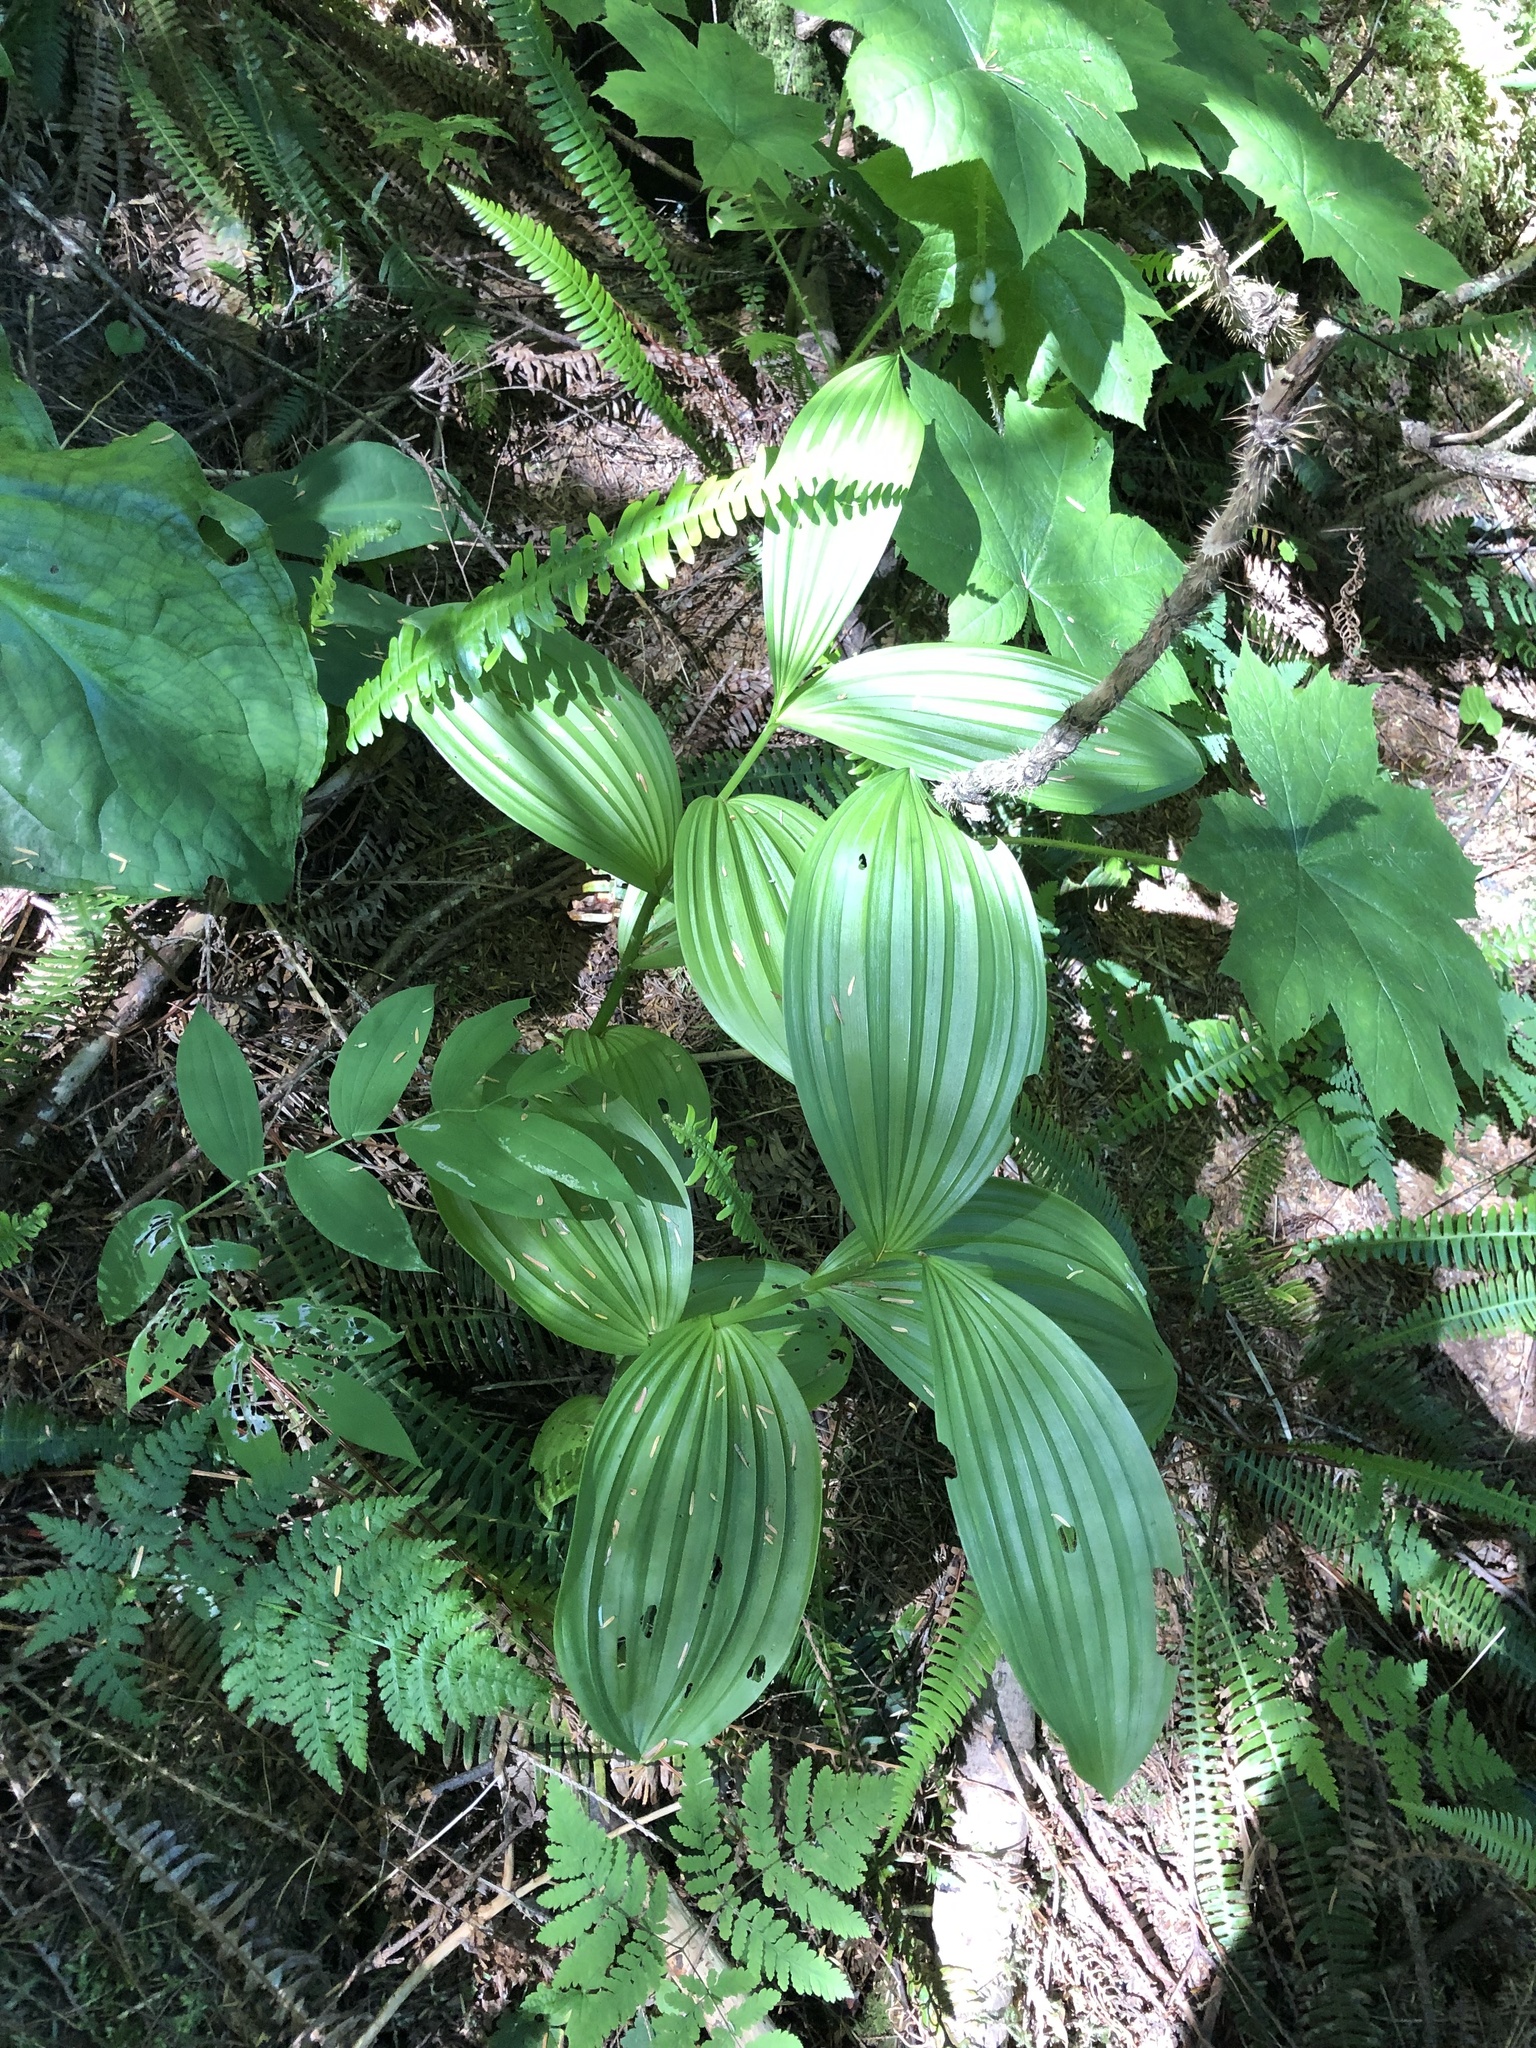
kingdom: Plantae
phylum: Tracheophyta
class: Liliopsida
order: Liliales
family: Melanthiaceae
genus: Veratrum
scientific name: Veratrum viride
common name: American false hellebore
